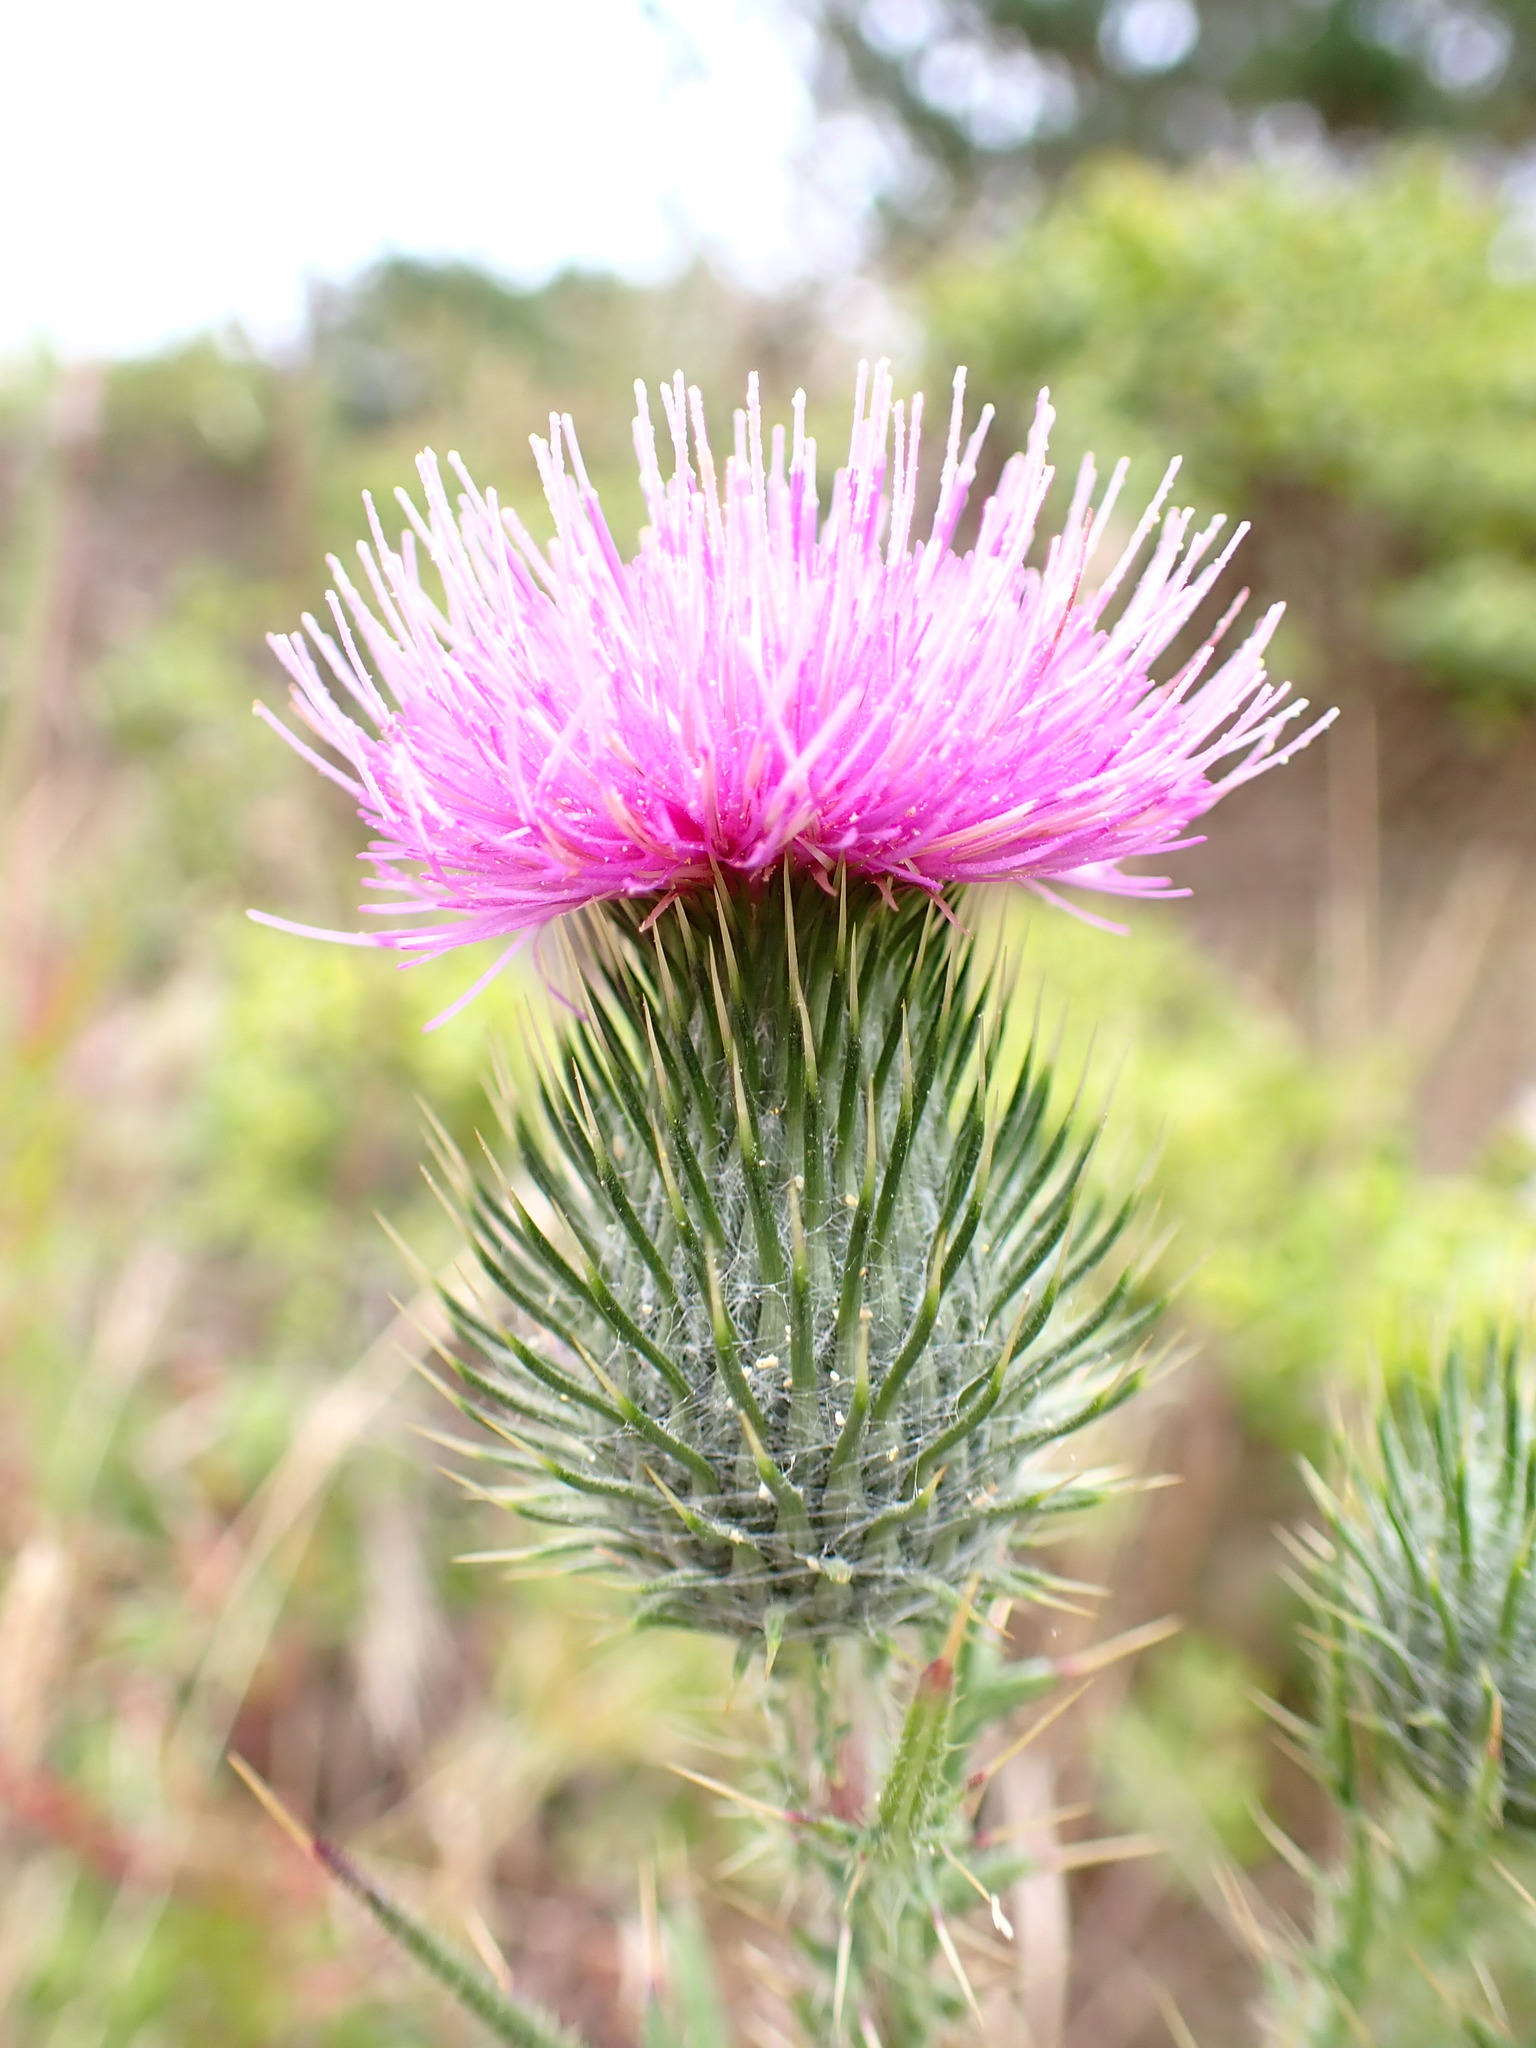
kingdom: Plantae
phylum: Tracheophyta
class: Magnoliopsida
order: Asterales
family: Asteraceae
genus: Cirsium
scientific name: Cirsium vulgare
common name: Bull thistle
